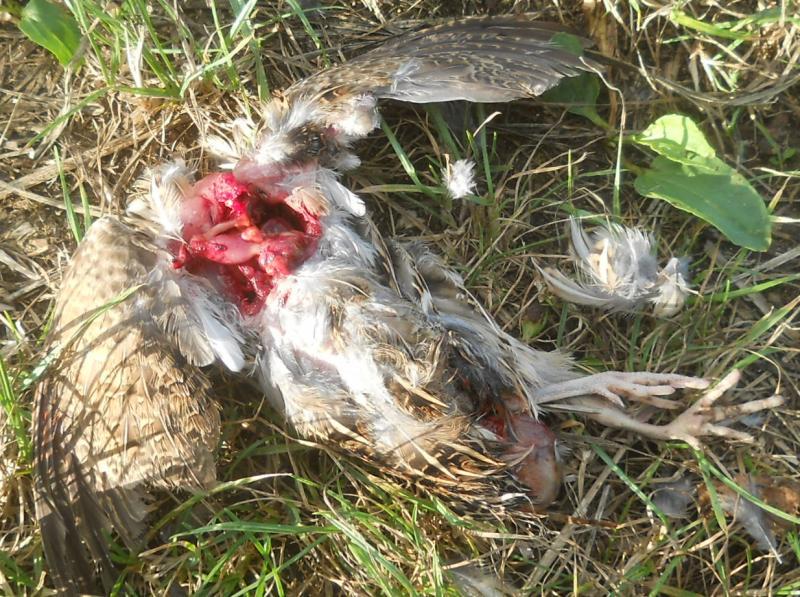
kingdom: Animalia
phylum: Chordata
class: Aves
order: Galliformes
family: Phasianidae
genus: Coturnix
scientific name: Coturnix coturnix
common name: Common quail
